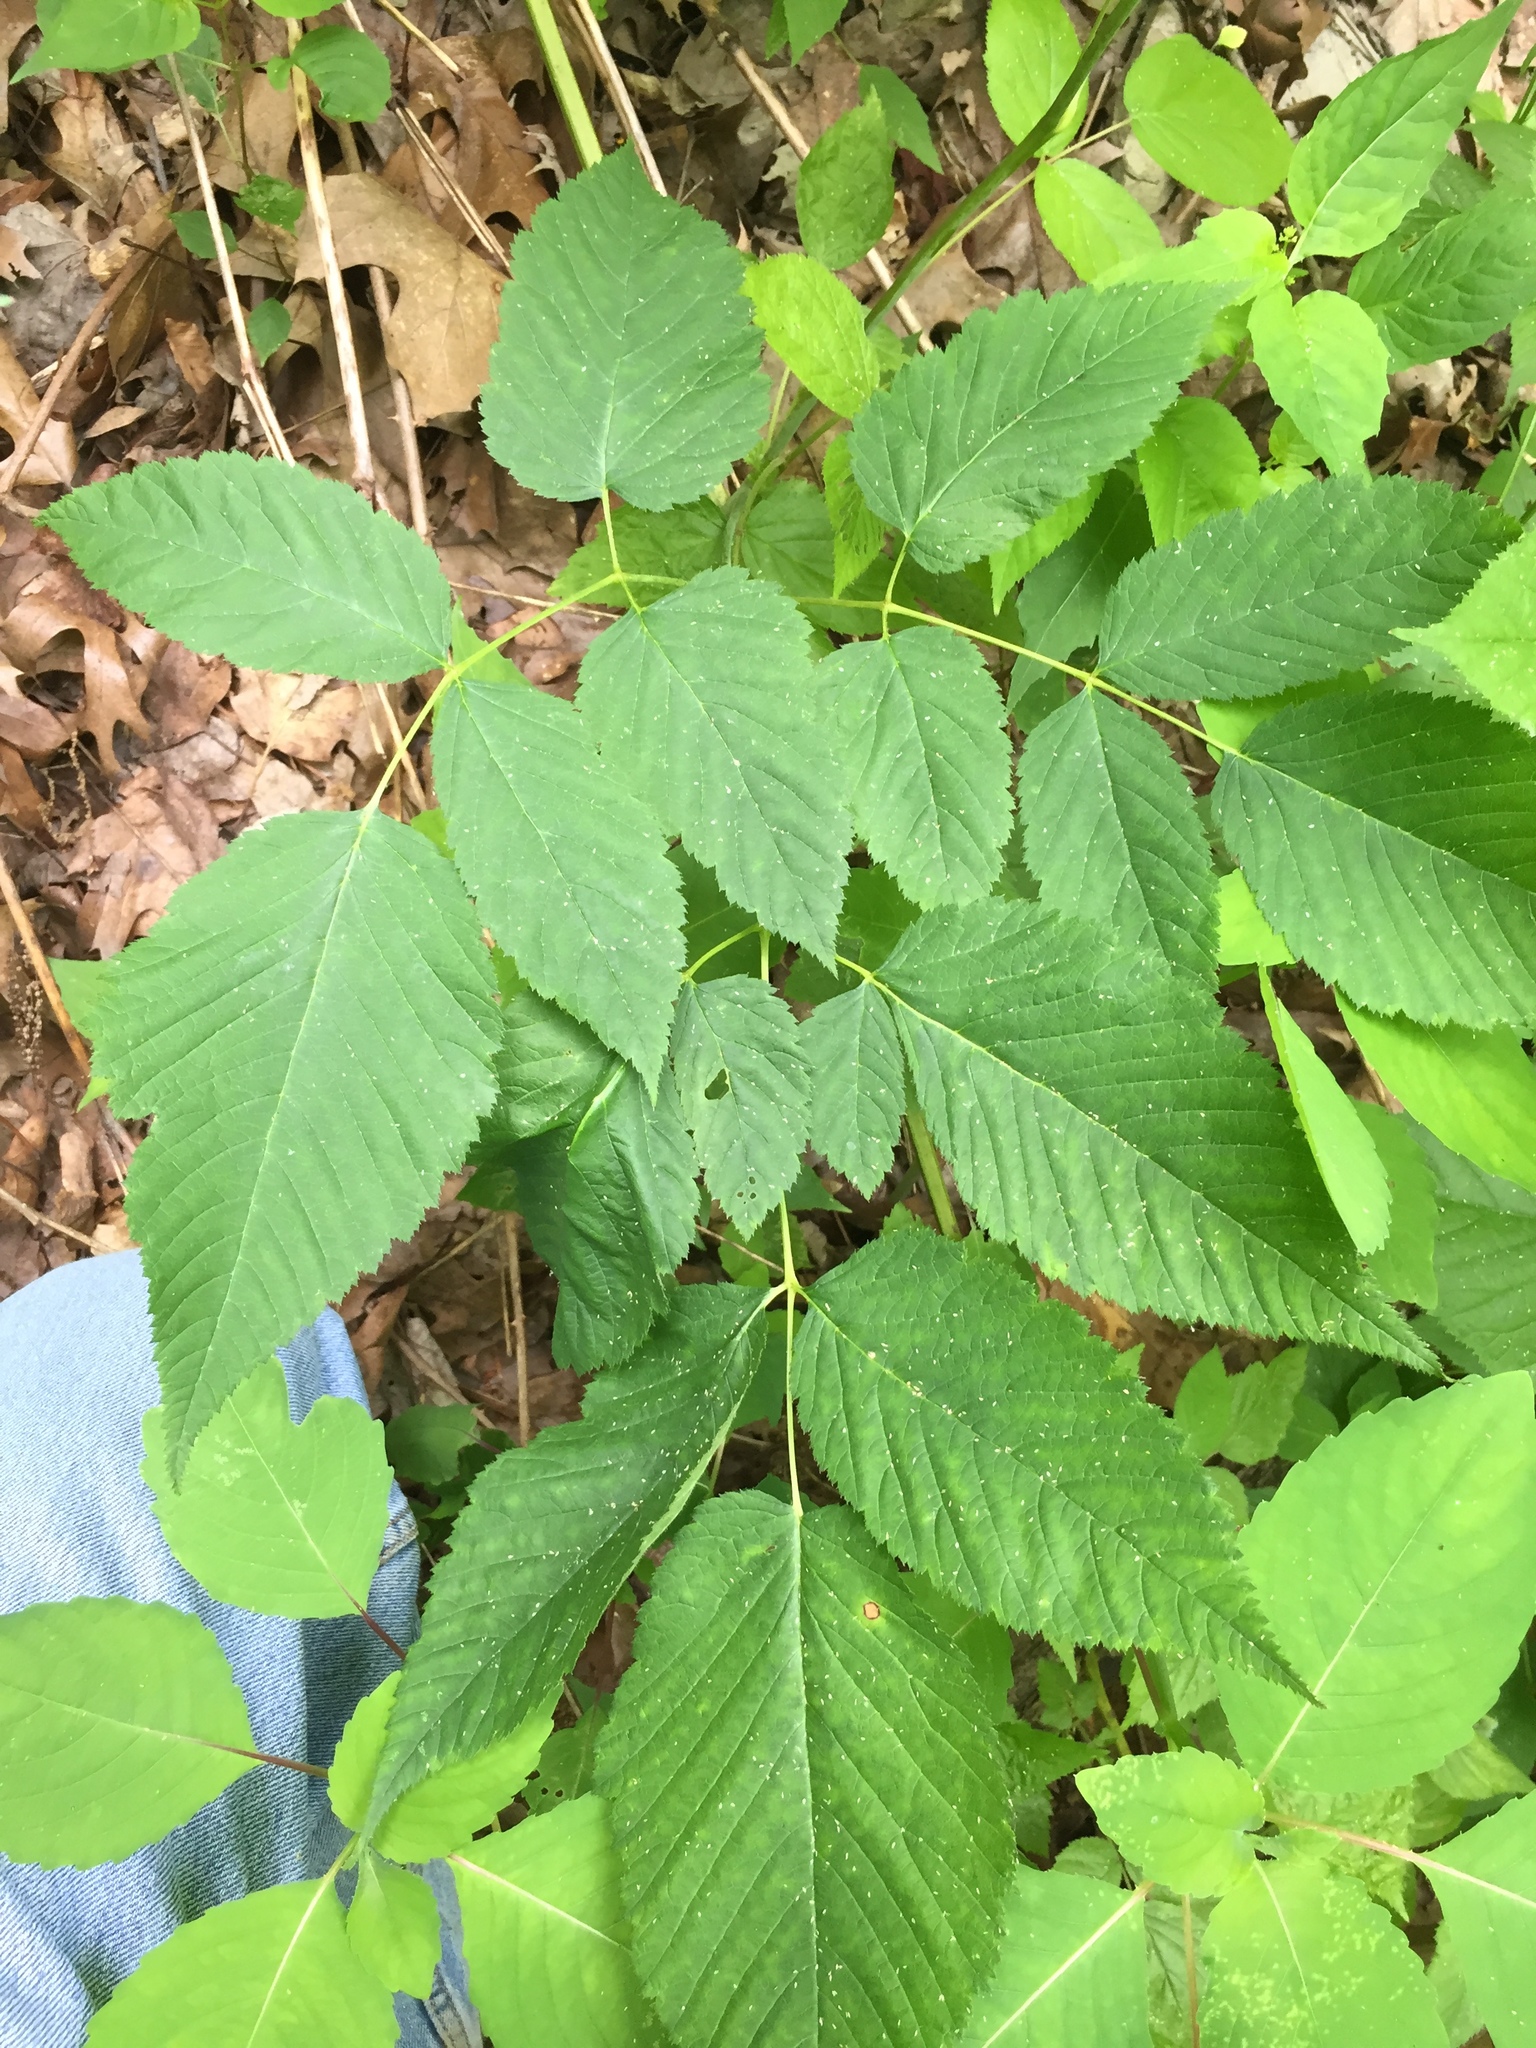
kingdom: Plantae
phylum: Tracheophyta
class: Magnoliopsida
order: Rosales
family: Rosaceae
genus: Aruncus
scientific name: Aruncus dioicus
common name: Buck's-beard
